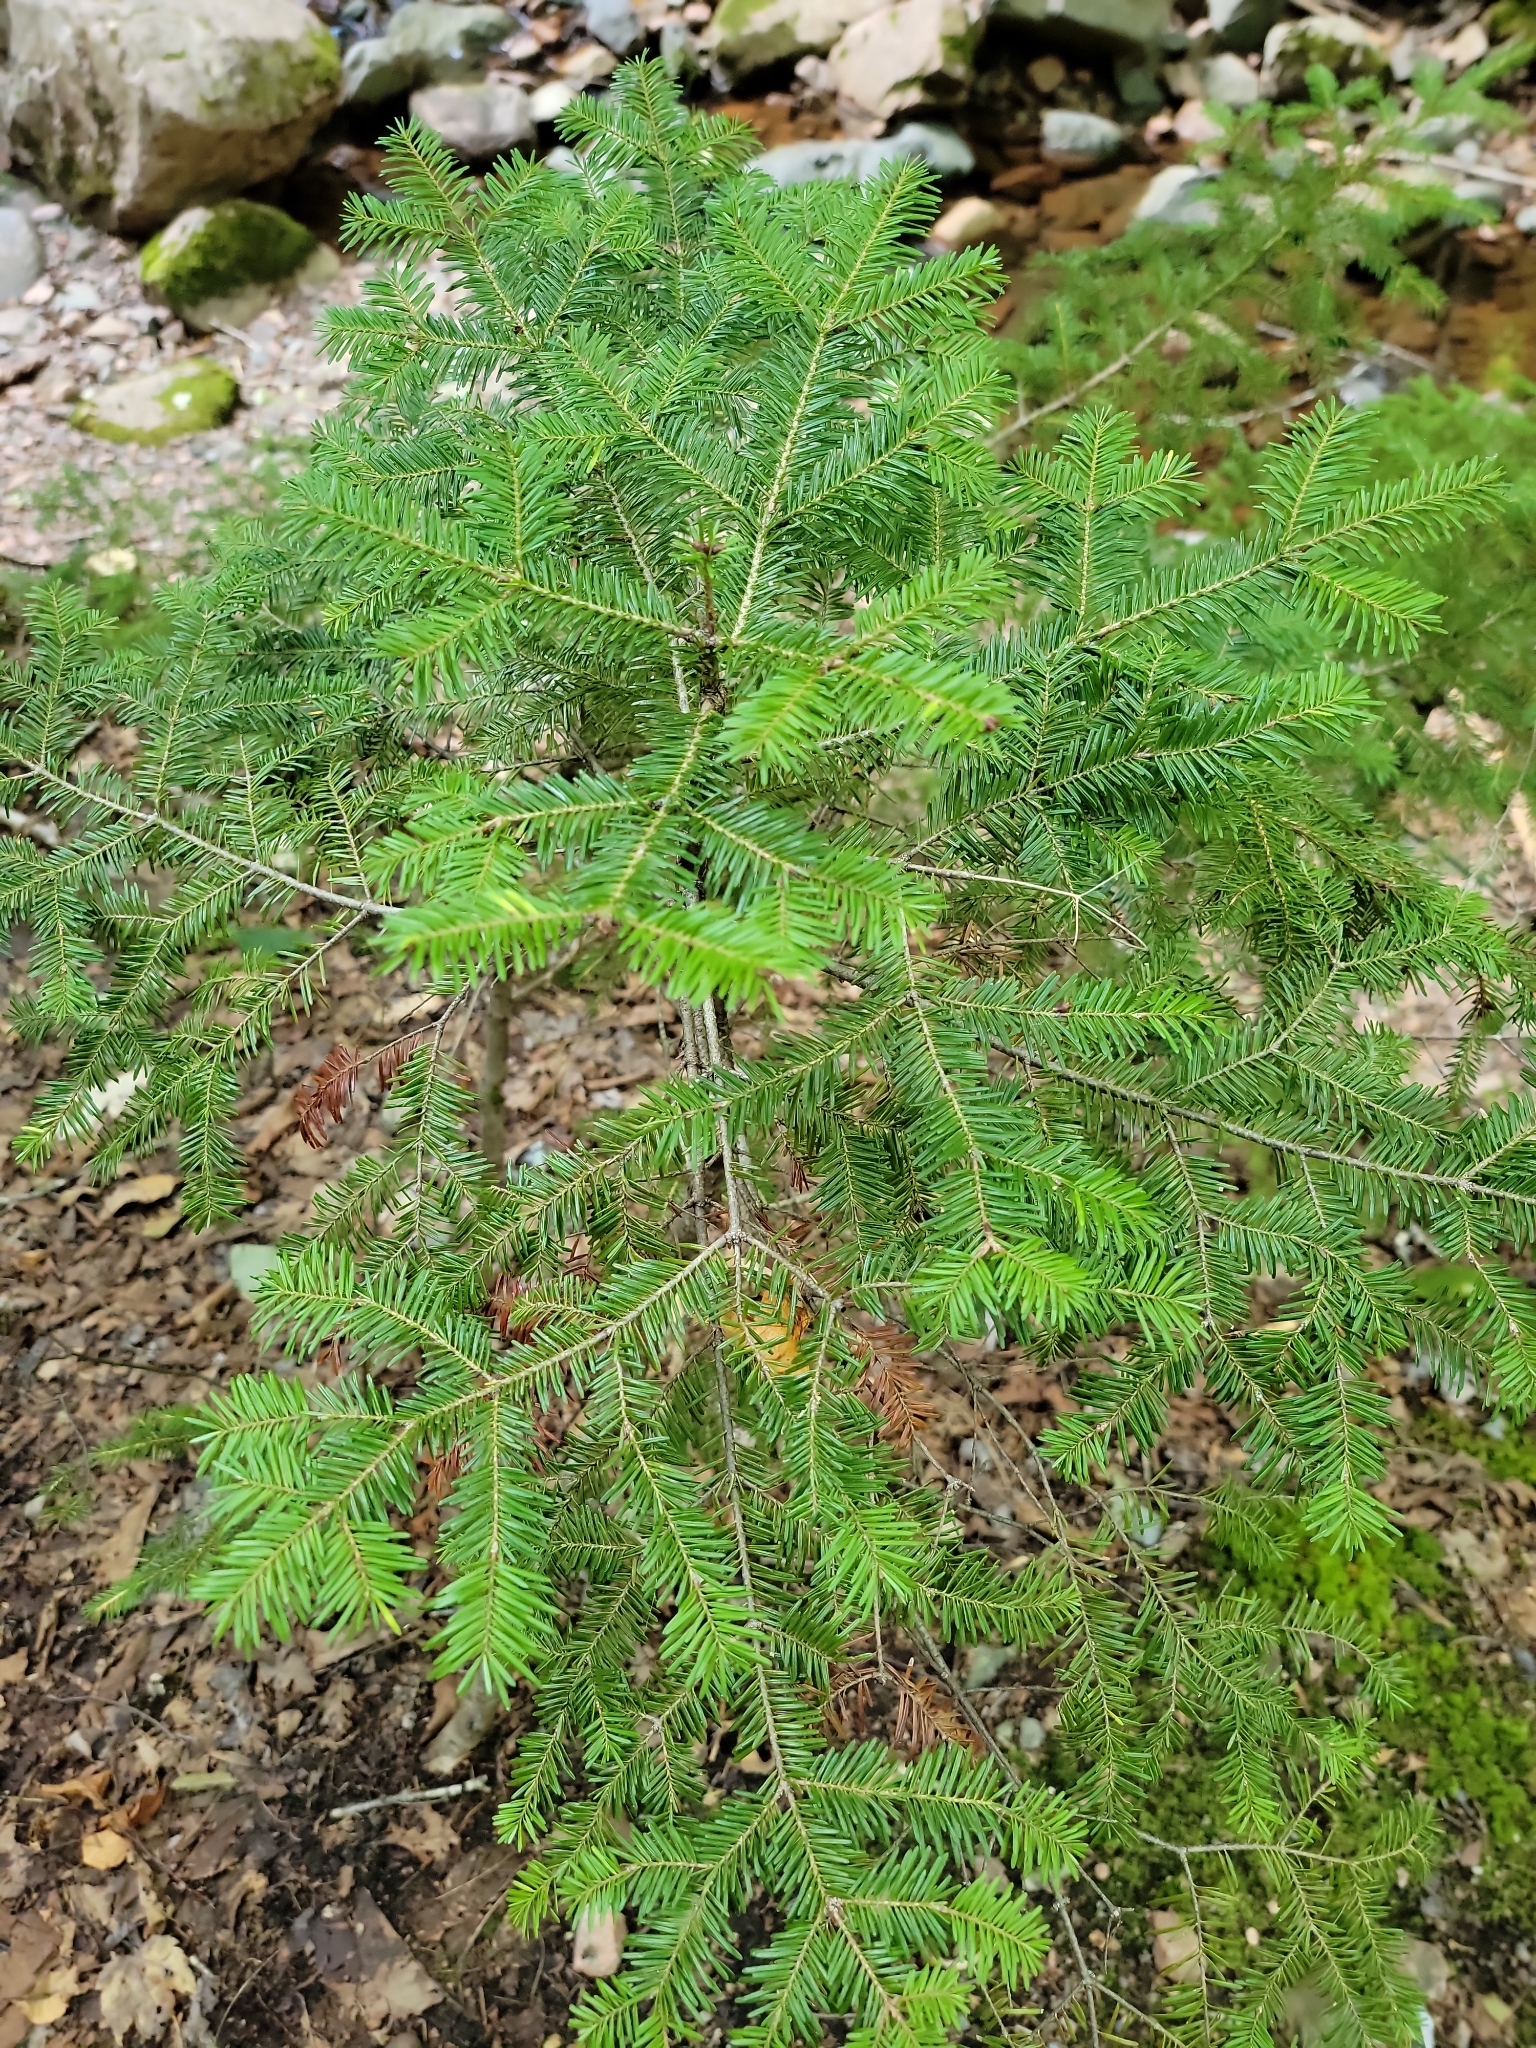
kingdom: Plantae
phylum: Tracheophyta
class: Pinopsida
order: Pinales
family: Pinaceae
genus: Abies
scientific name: Abies balsamea
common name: Balsam fir
